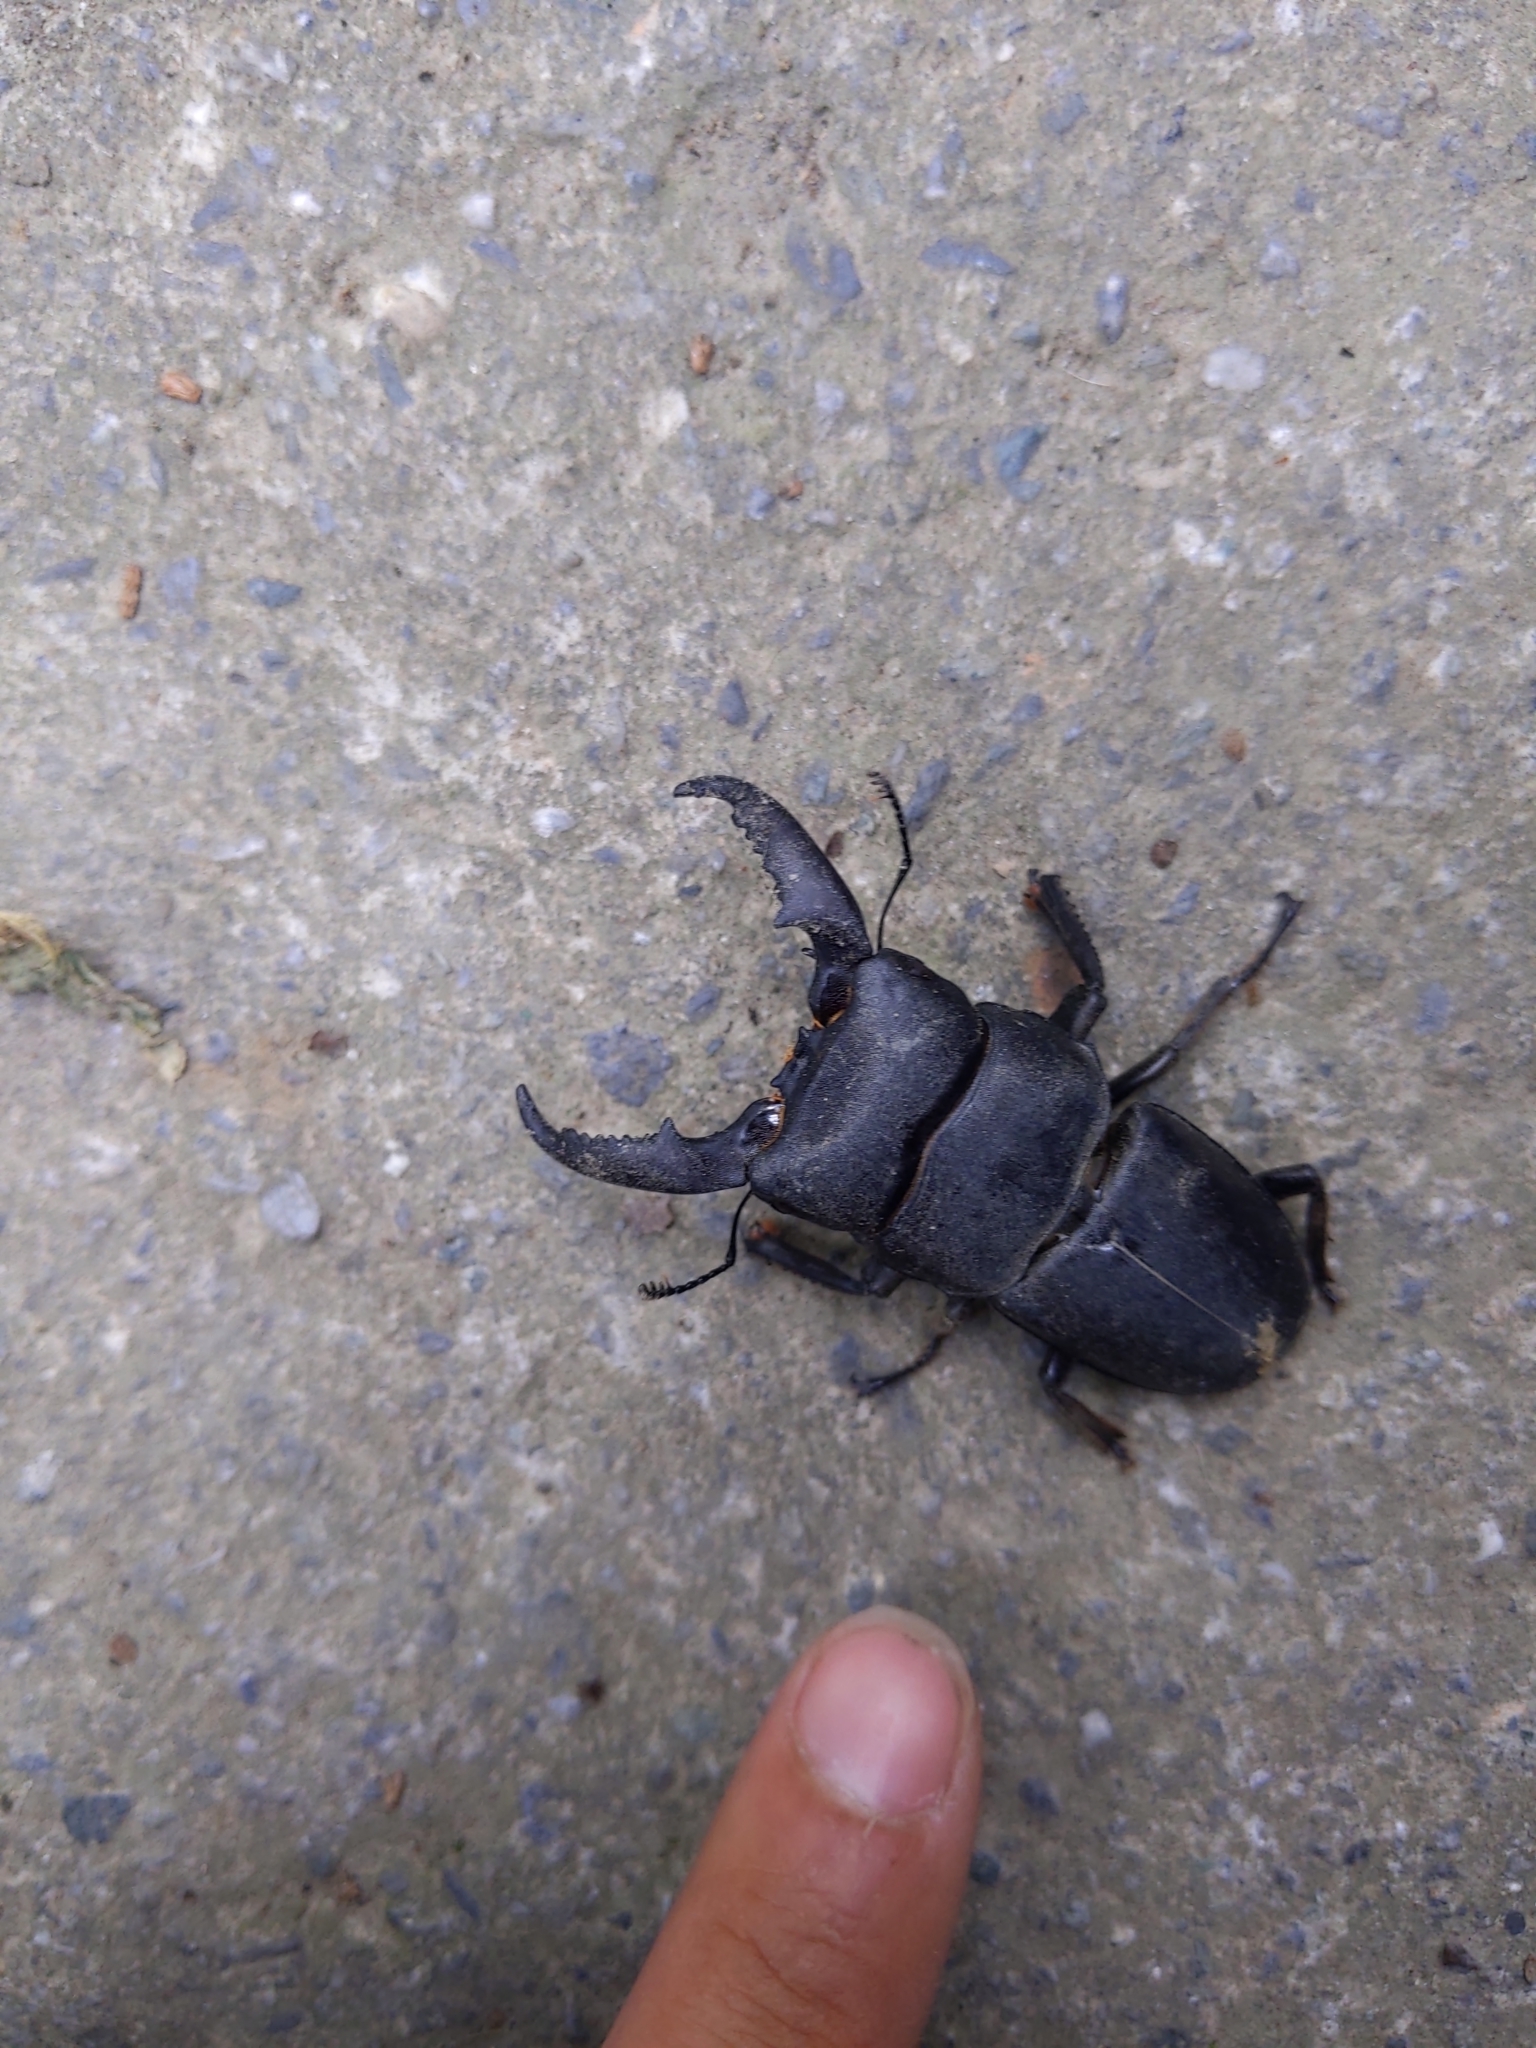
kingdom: Animalia
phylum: Arthropoda
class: Insecta
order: Coleoptera
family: Lucanidae
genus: Serrognathus
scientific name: Serrognathus titanus
